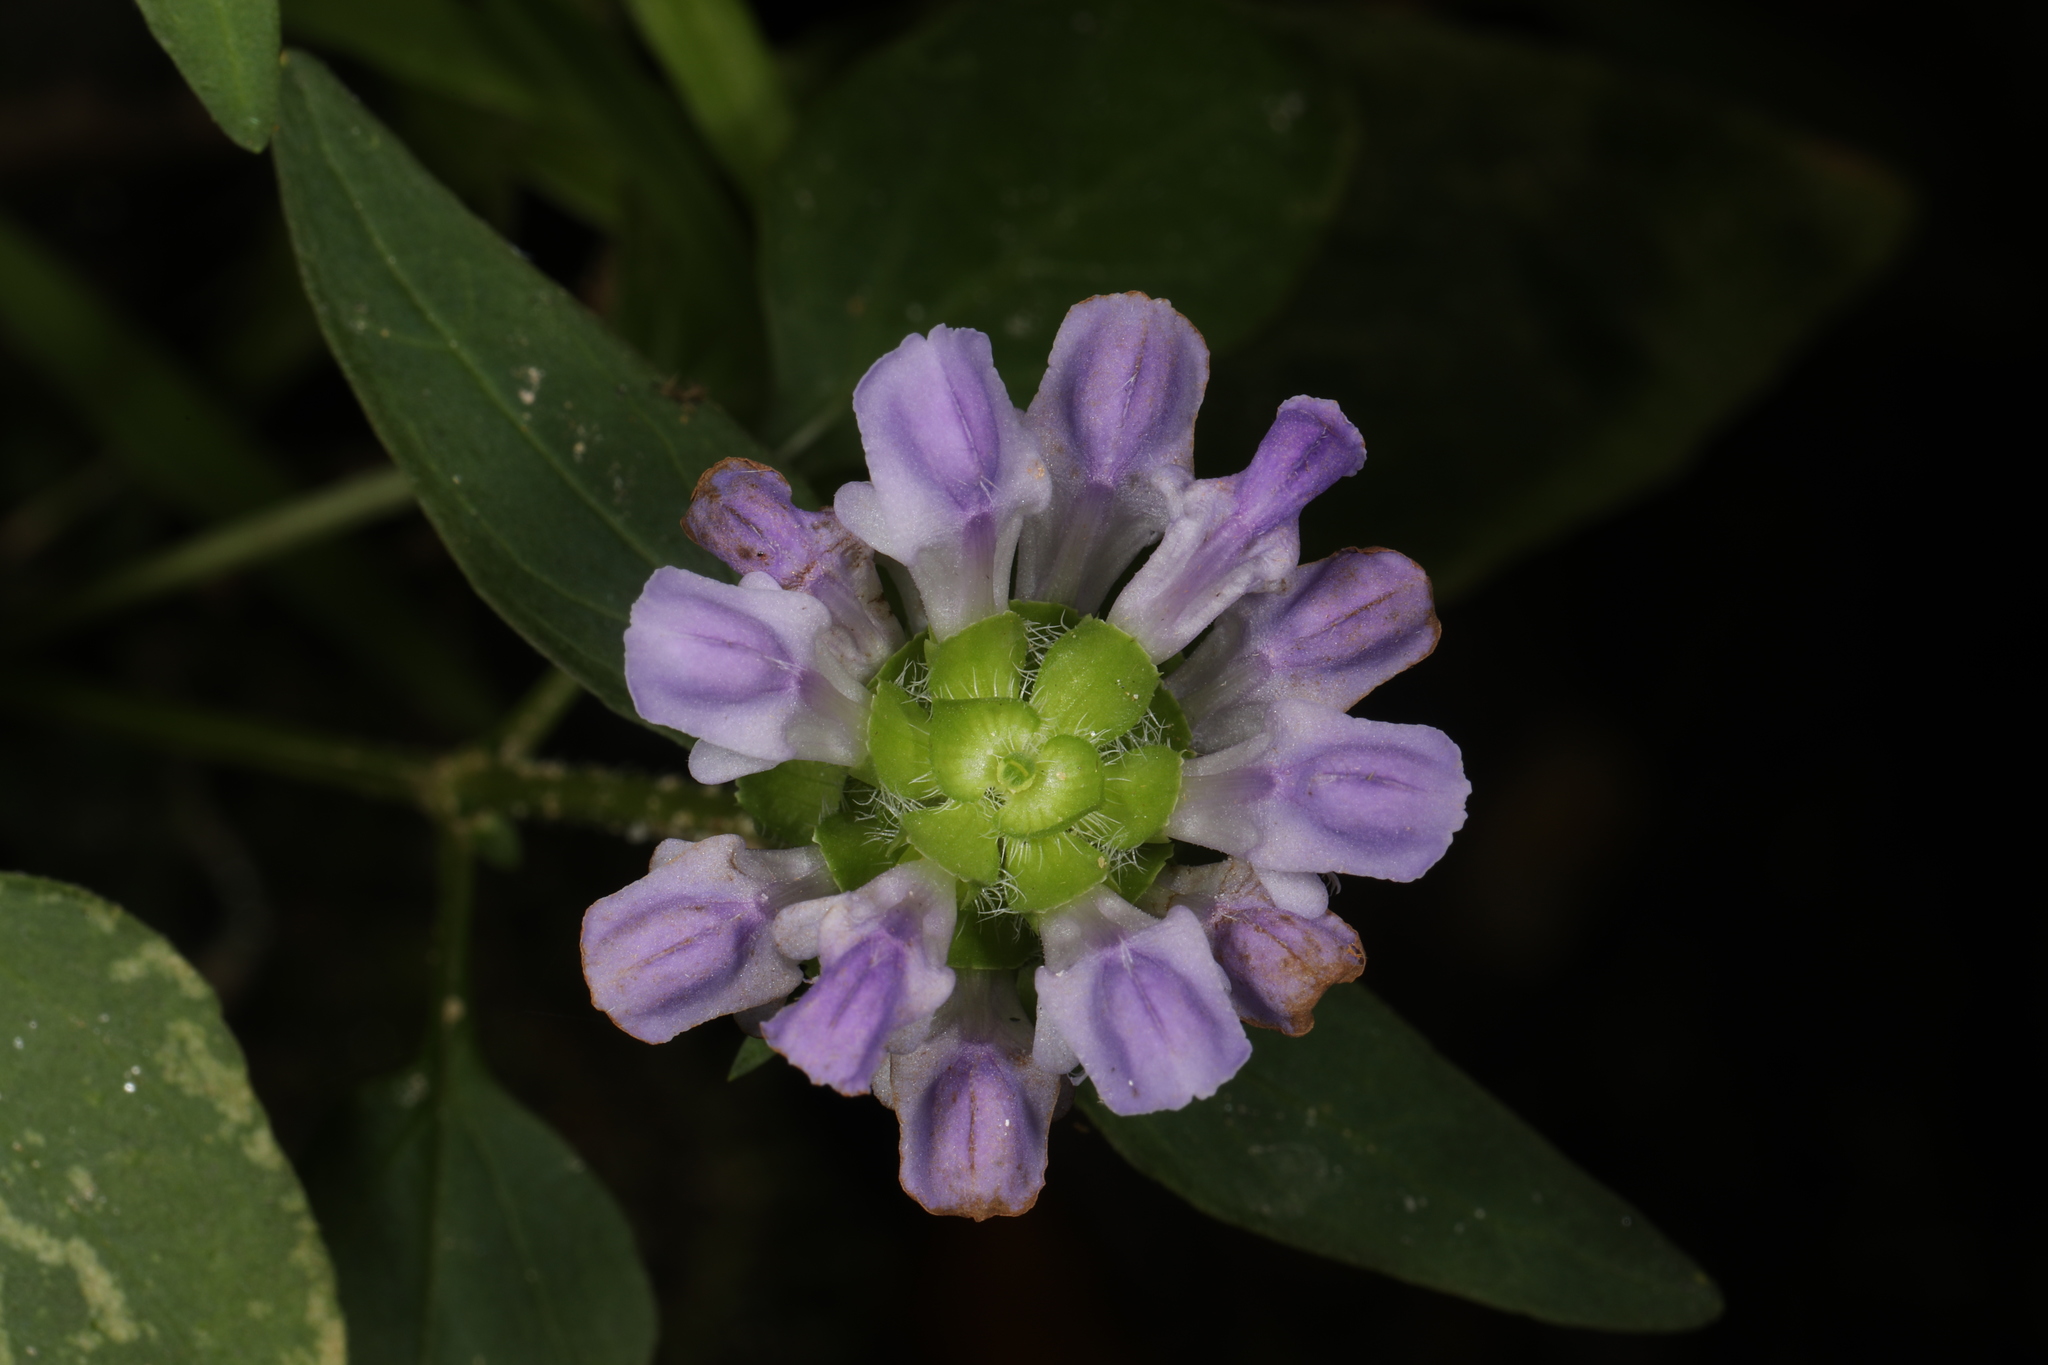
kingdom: Plantae
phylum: Tracheophyta
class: Magnoliopsida
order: Lamiales
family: Lamiaceae
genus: Prunella
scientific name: Prunella vulgaris
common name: Heal-all
